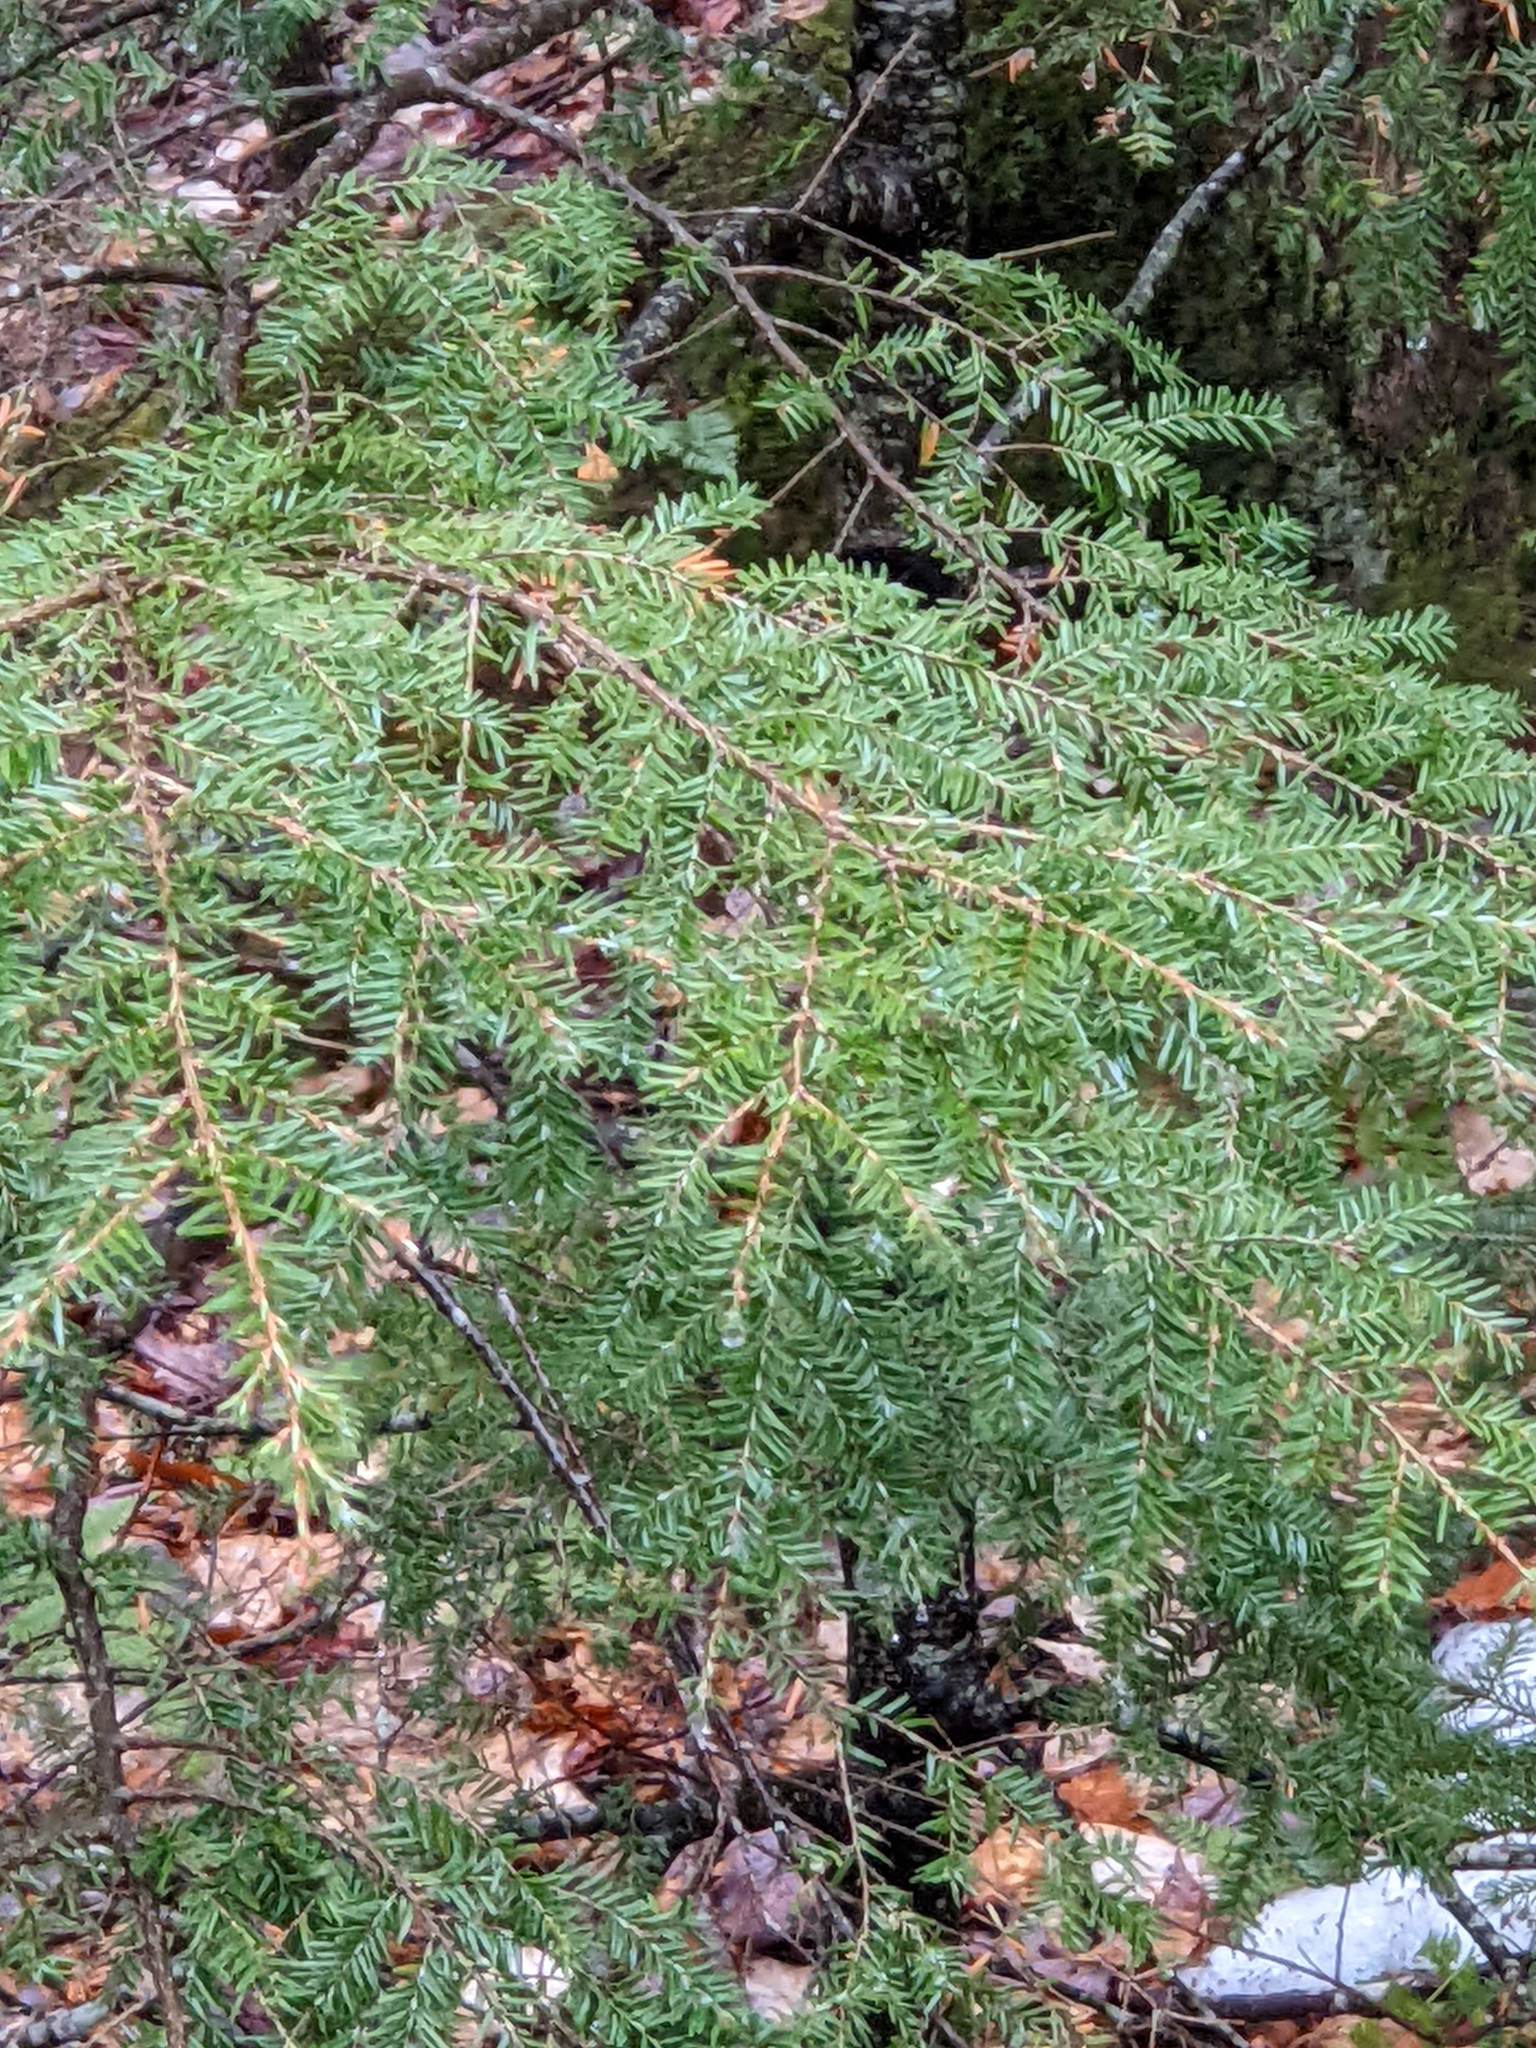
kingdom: Plantae
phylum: Tracheophyta
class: Pinopsida
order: Pinales
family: Pinaceae
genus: Tsuga
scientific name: Tsuga canadensis
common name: Eastern hemlock
